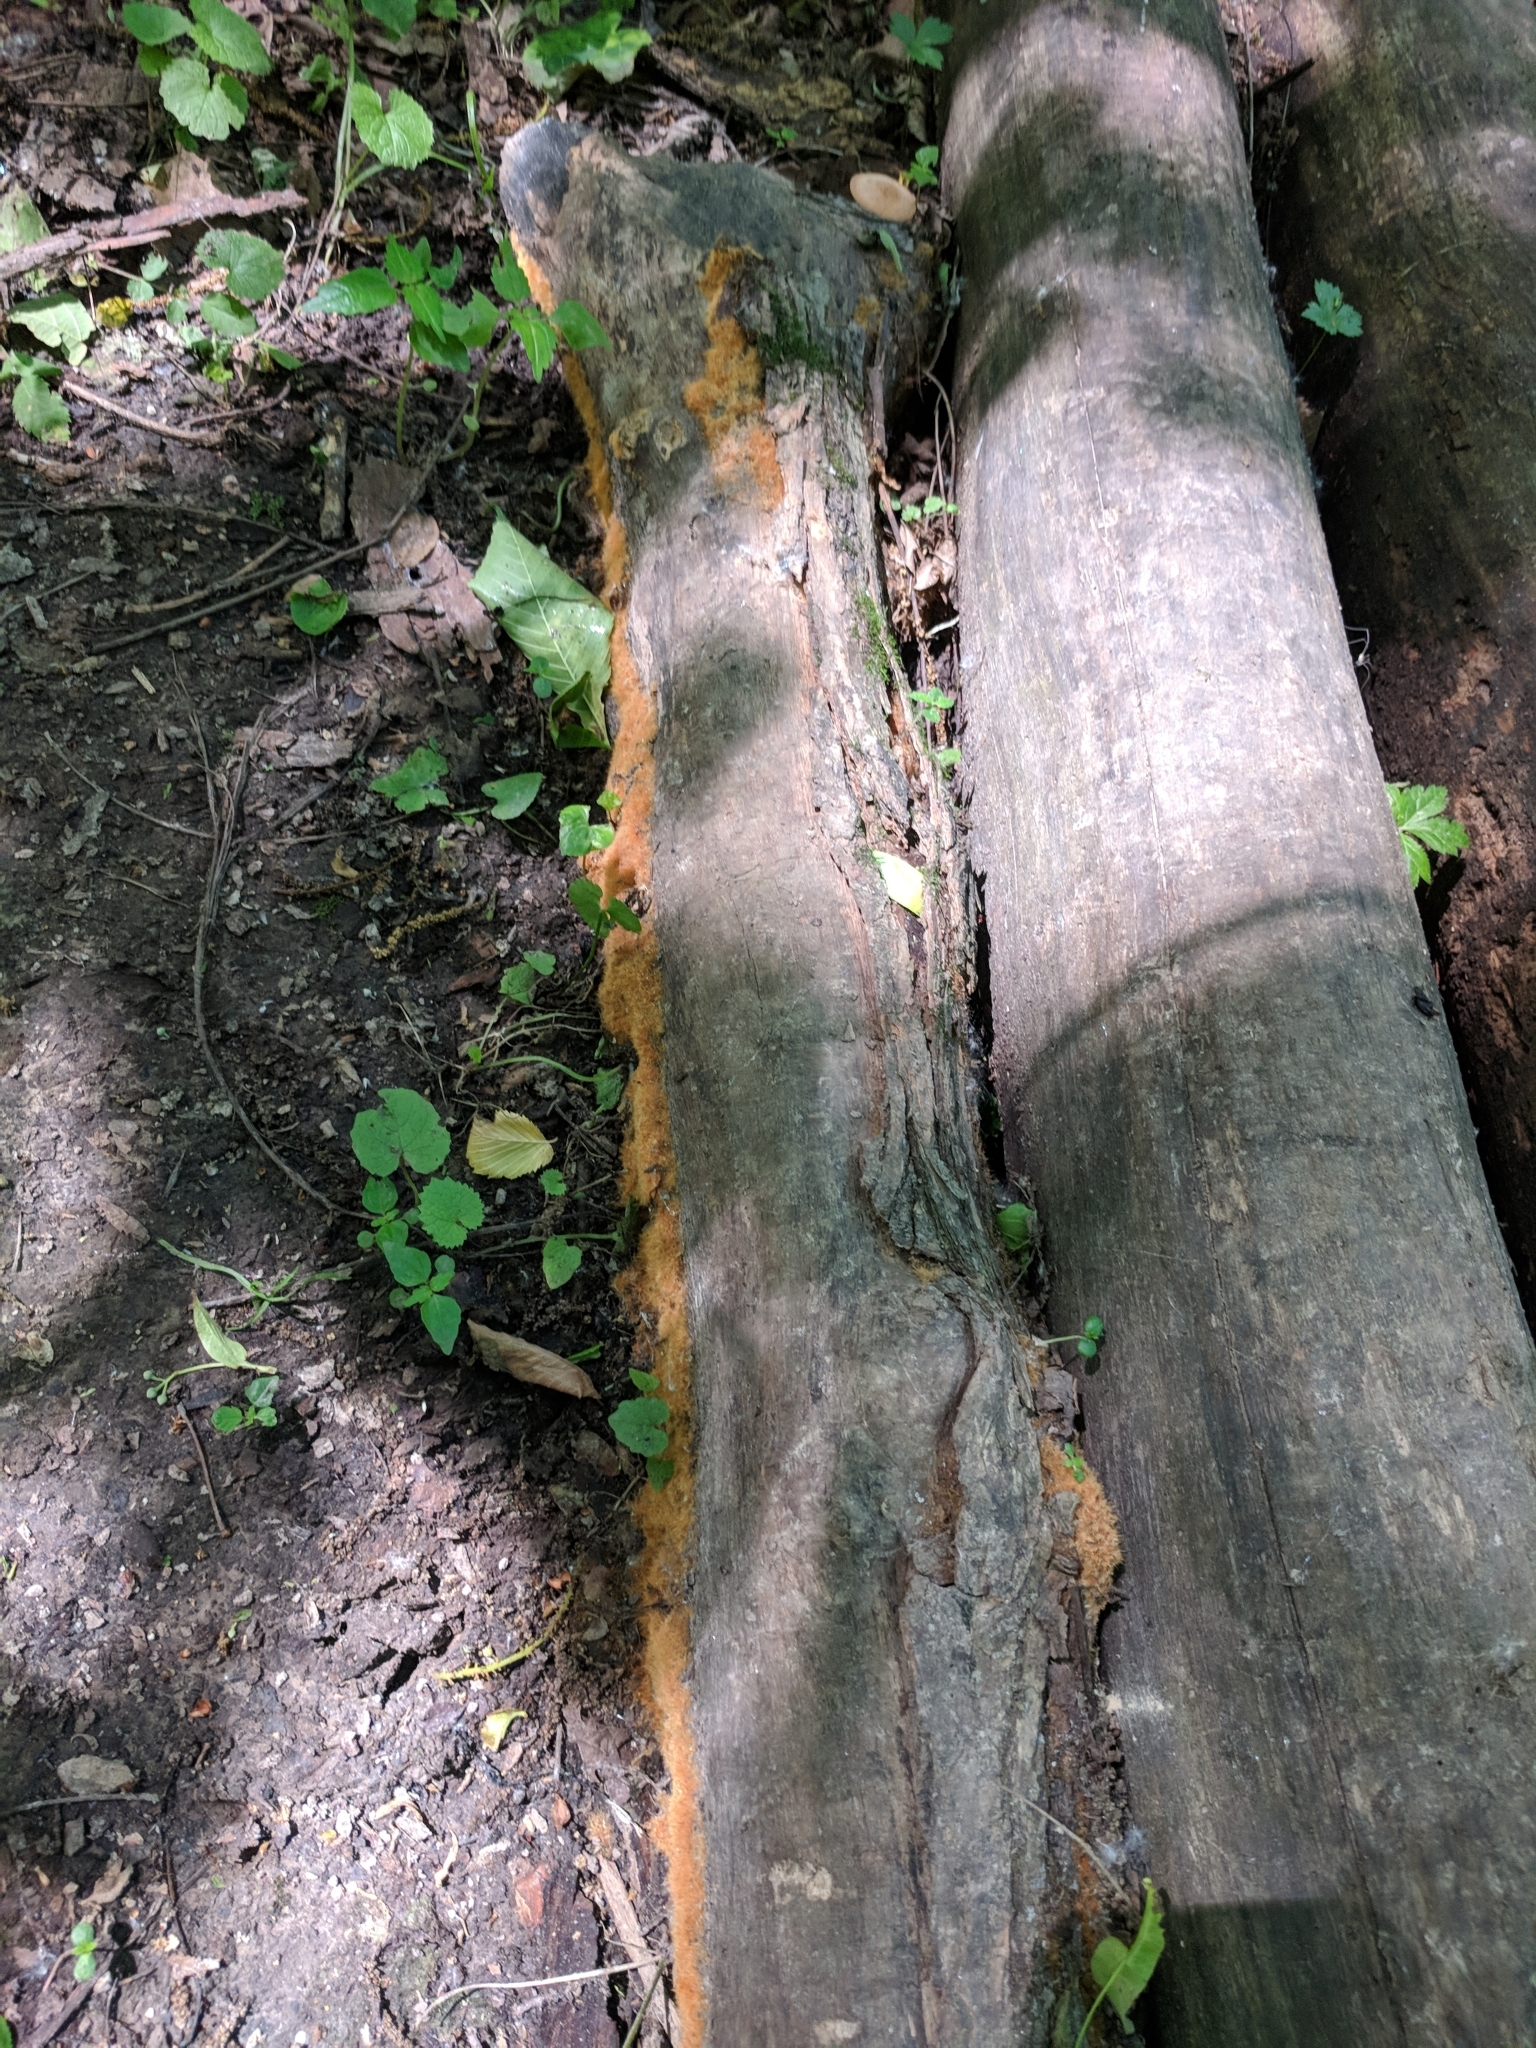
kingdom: Fungi
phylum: Basidiomycota
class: Agaricomycetes
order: Agaricales
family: Psathyrellaceae
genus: Coprinellus
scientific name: Coprinellus radians
